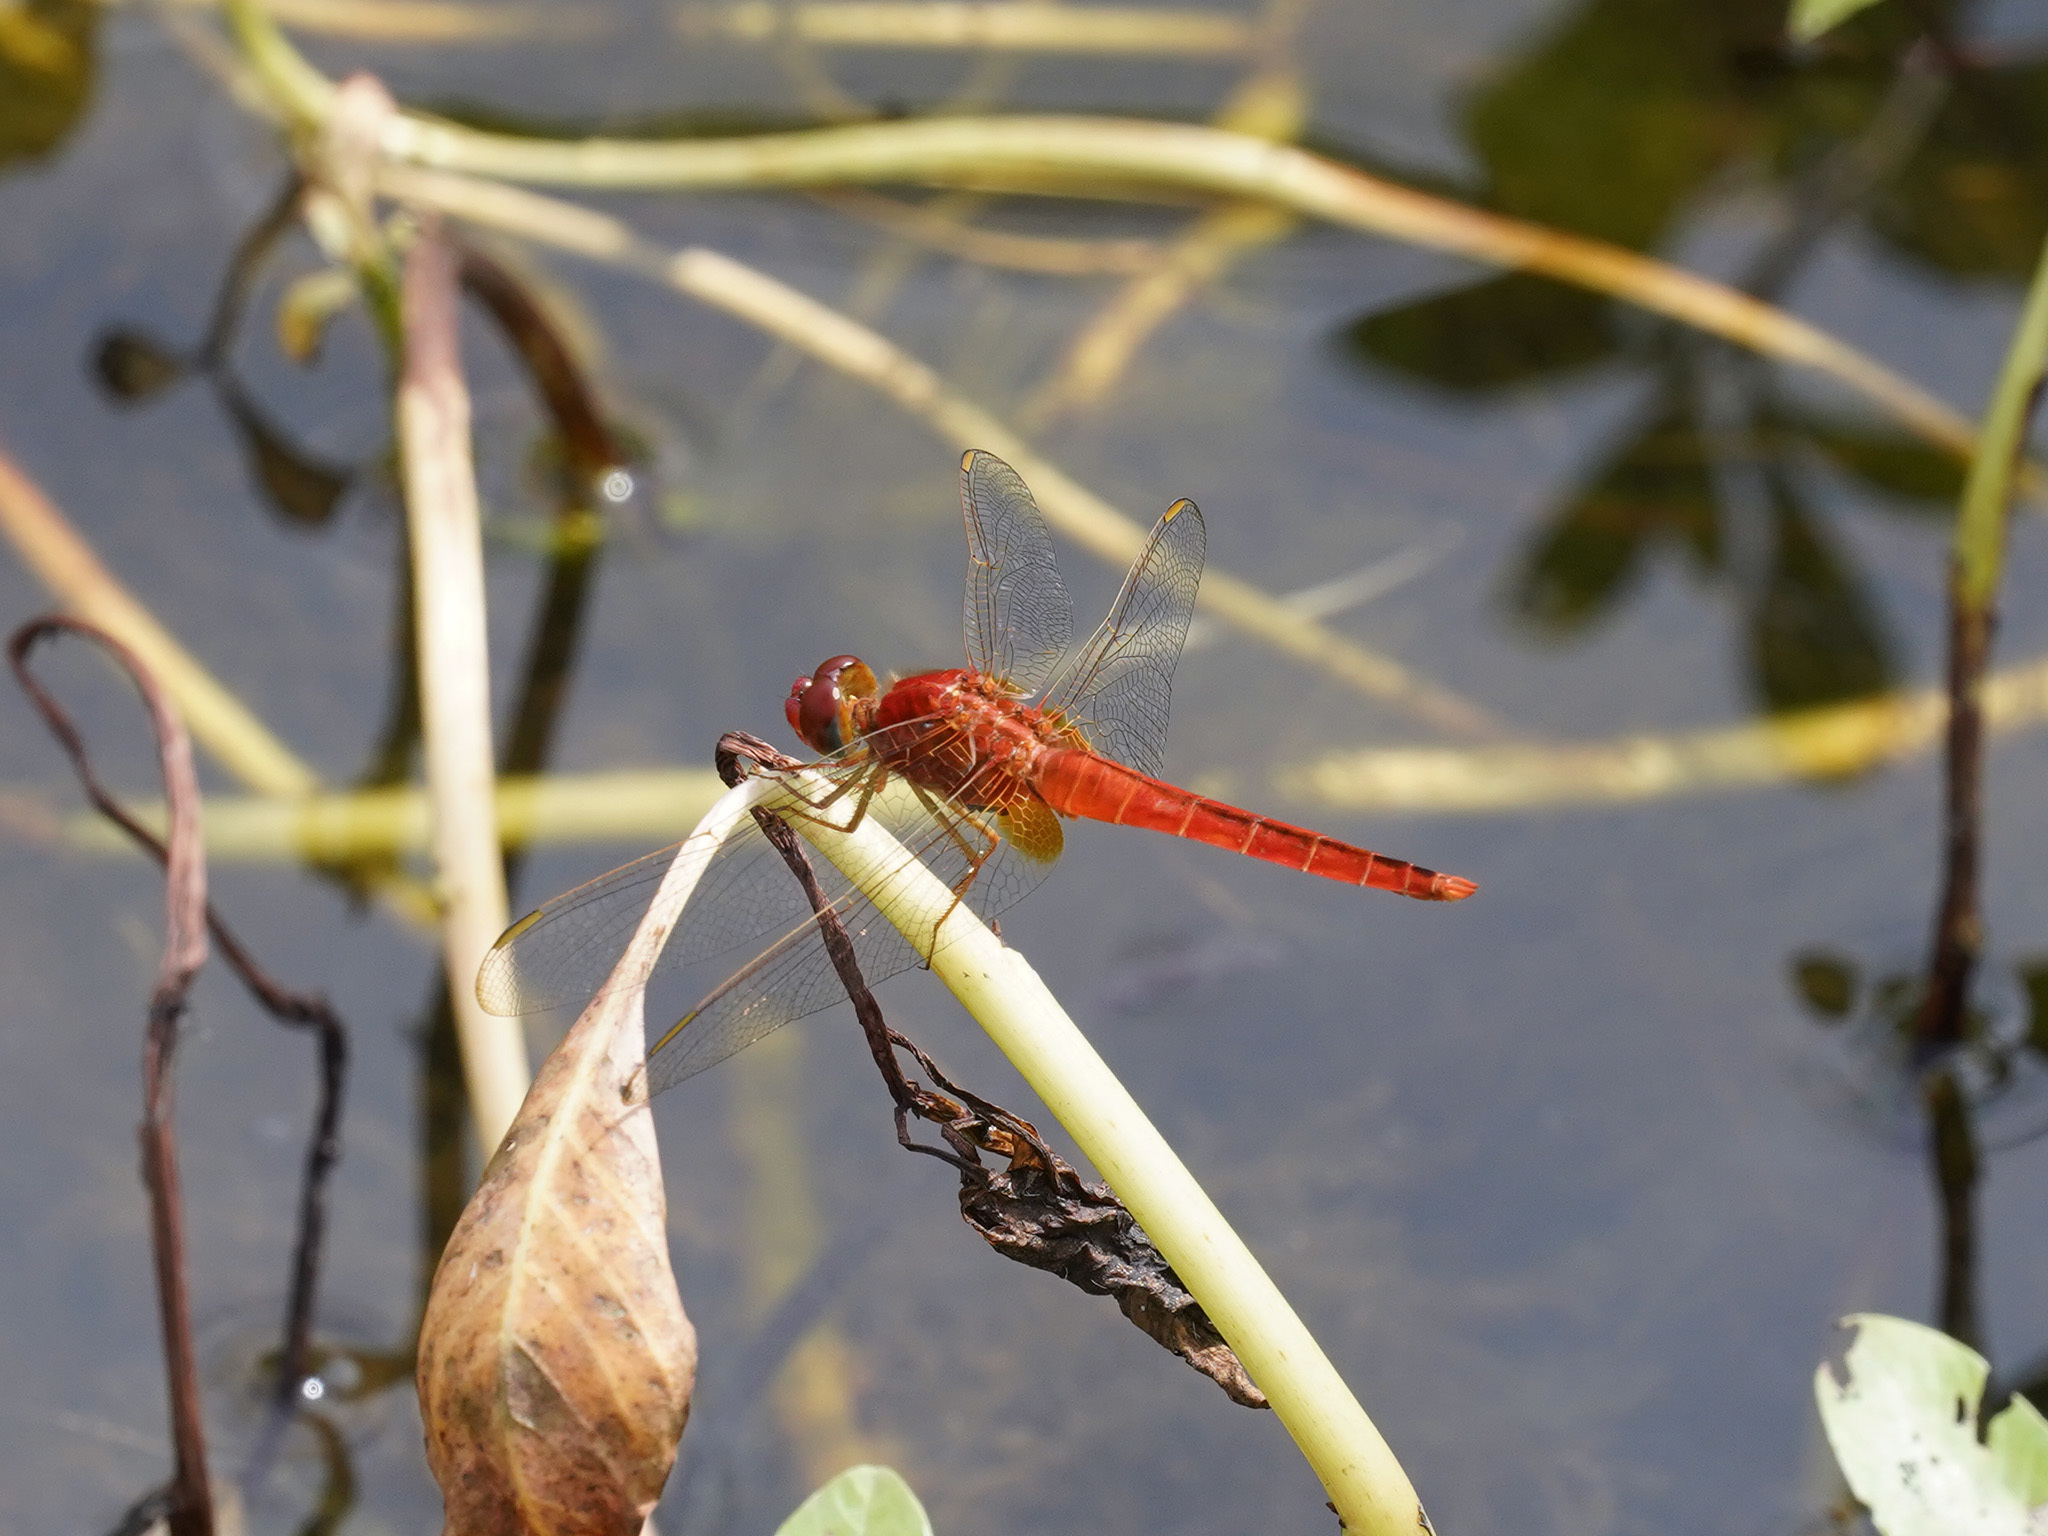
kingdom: Animalia
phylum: Arthropoda
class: Insecta
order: Odonata
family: Libellulidae
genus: Crocothemis
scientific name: Crocothemis servilia
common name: Scarlet skimmer
